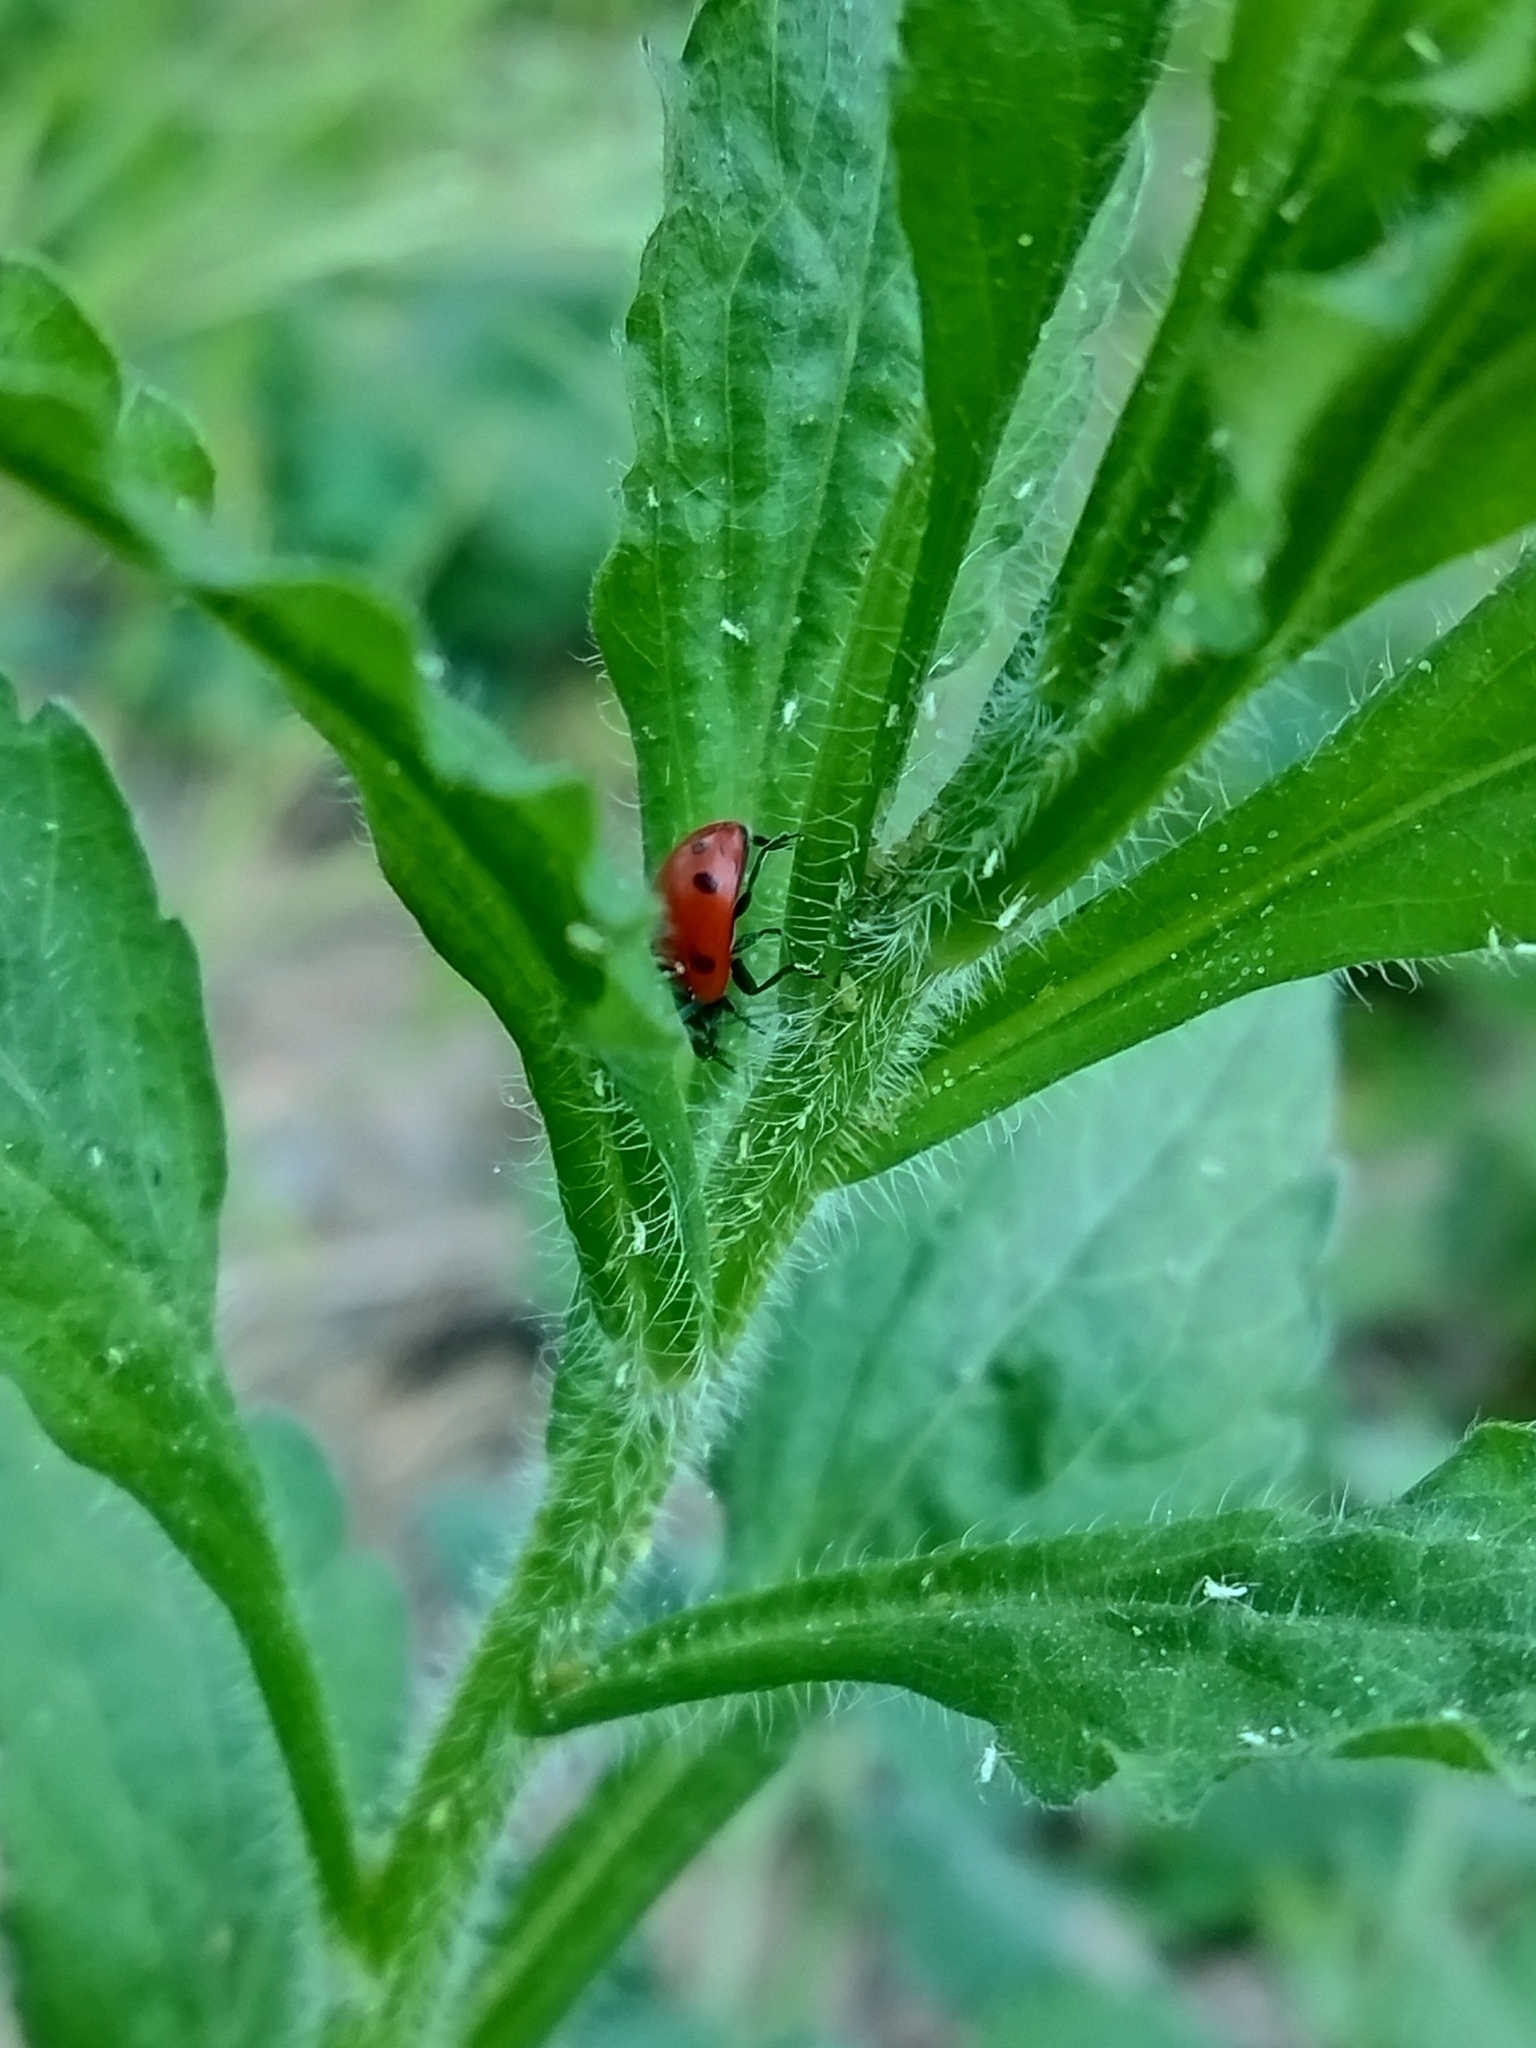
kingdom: Animalia
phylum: Arthropoda
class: Insecta
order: Coleoptera
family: Coccinellidae
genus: Coccinella
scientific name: Coccinella septempunctata
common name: Sevenspotted lady beetle
